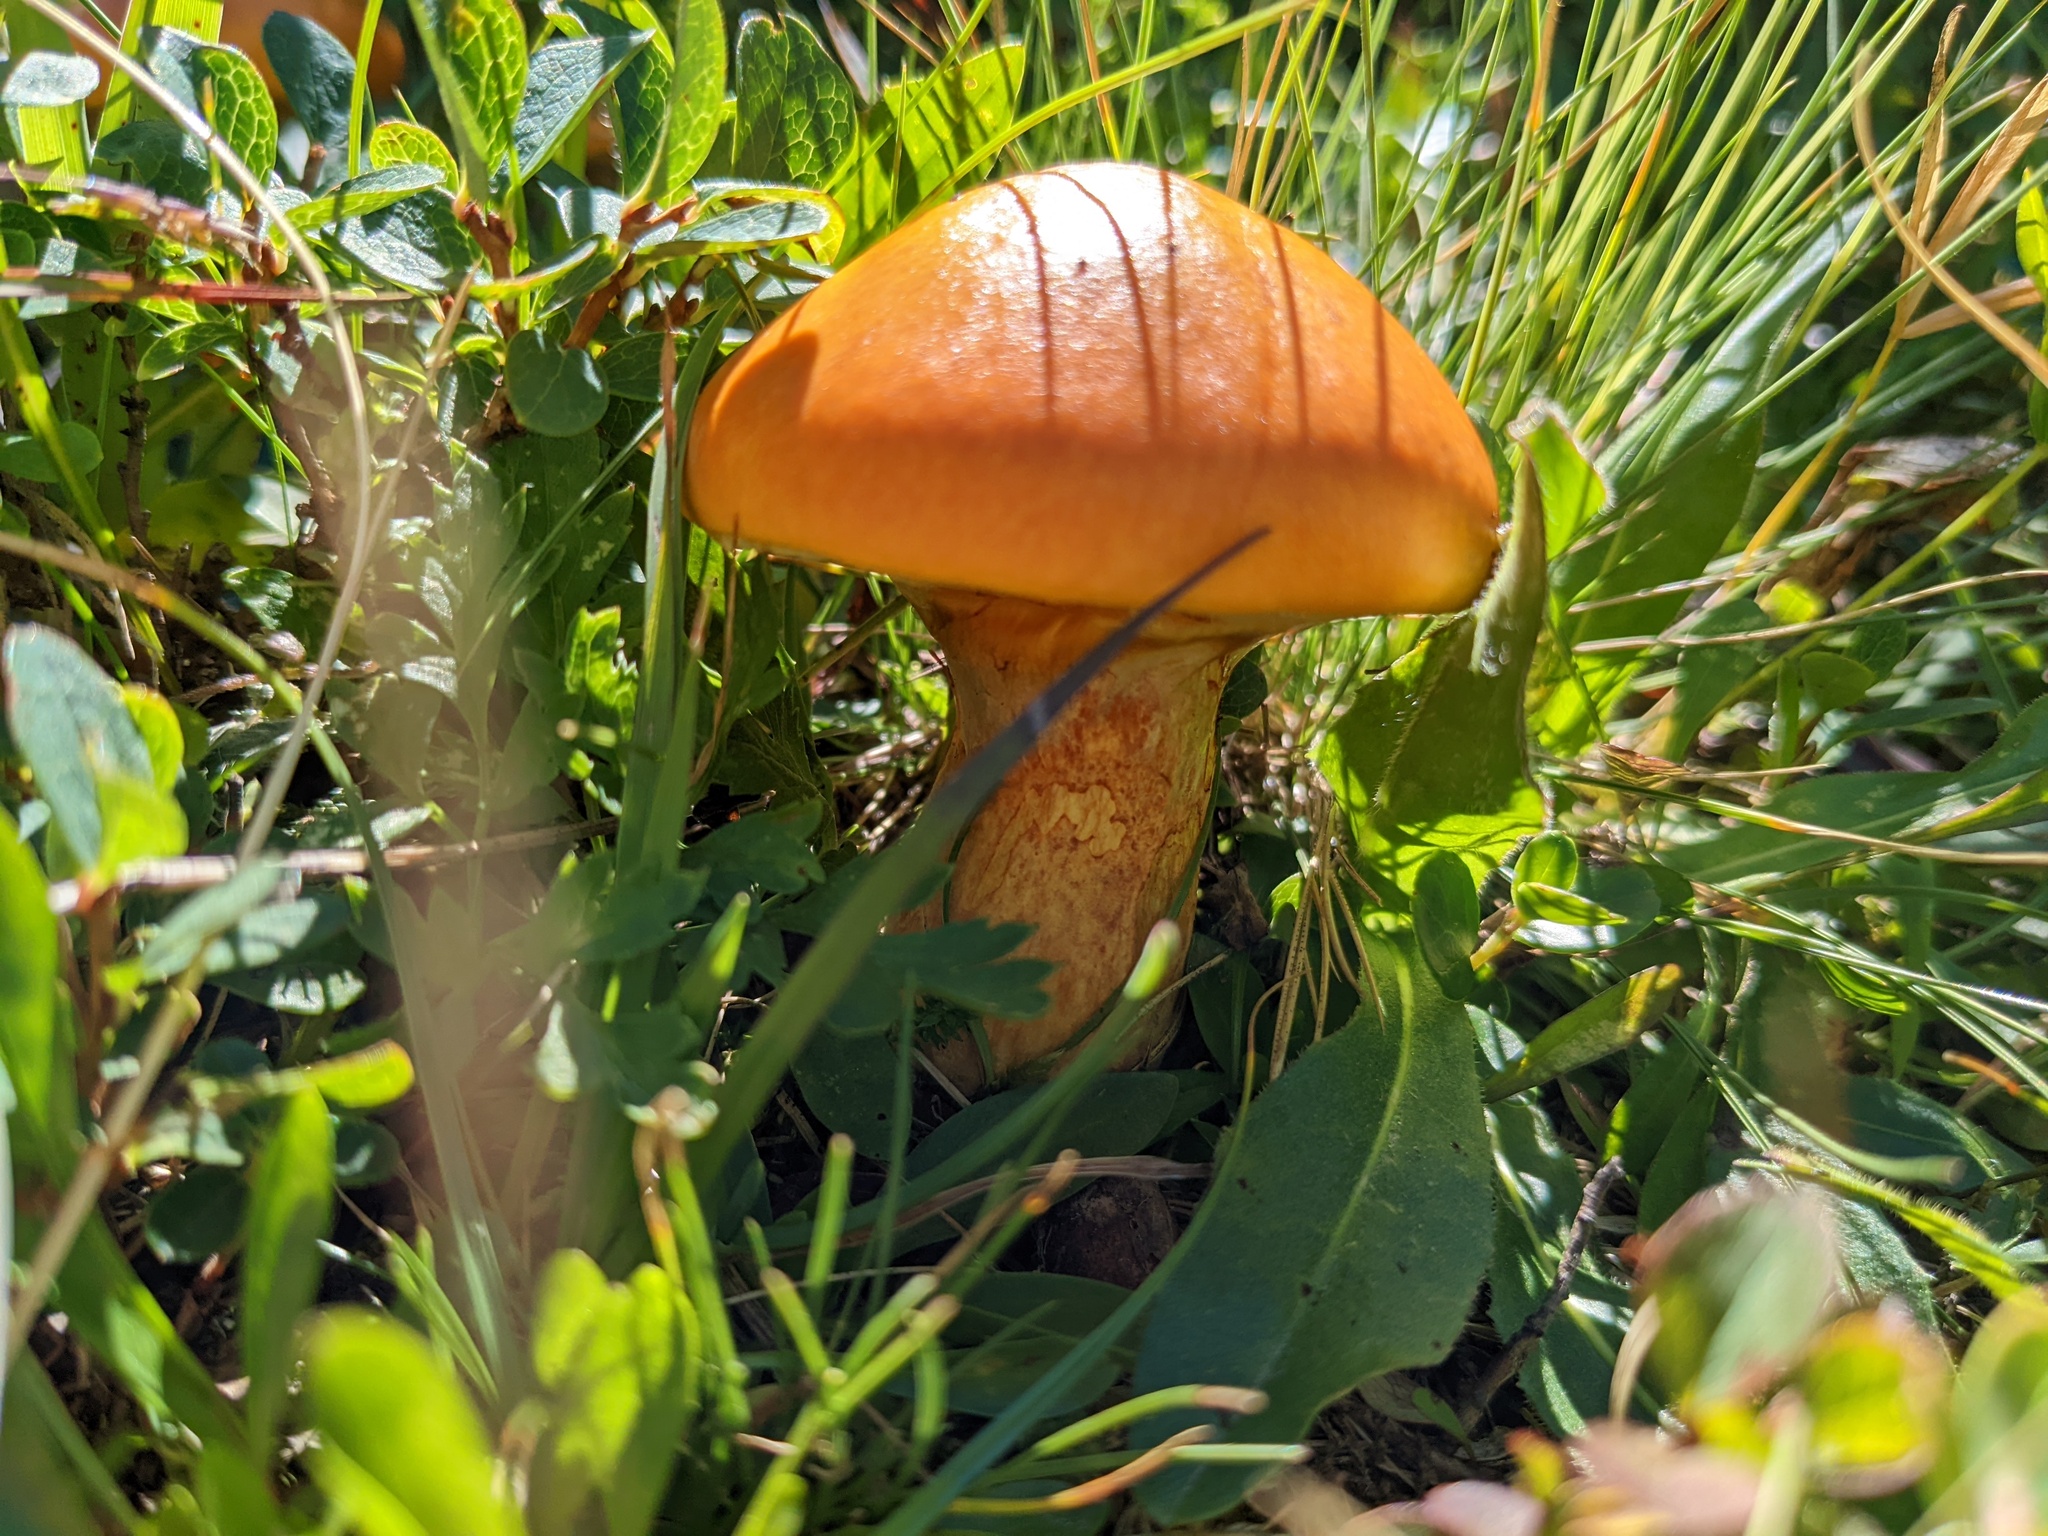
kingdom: Fungi
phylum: Basidiomycota
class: Agaricomycetes
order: Boletales
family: Suillaceae
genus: Suillus
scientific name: Suillus grevillei
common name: Larch bolete
